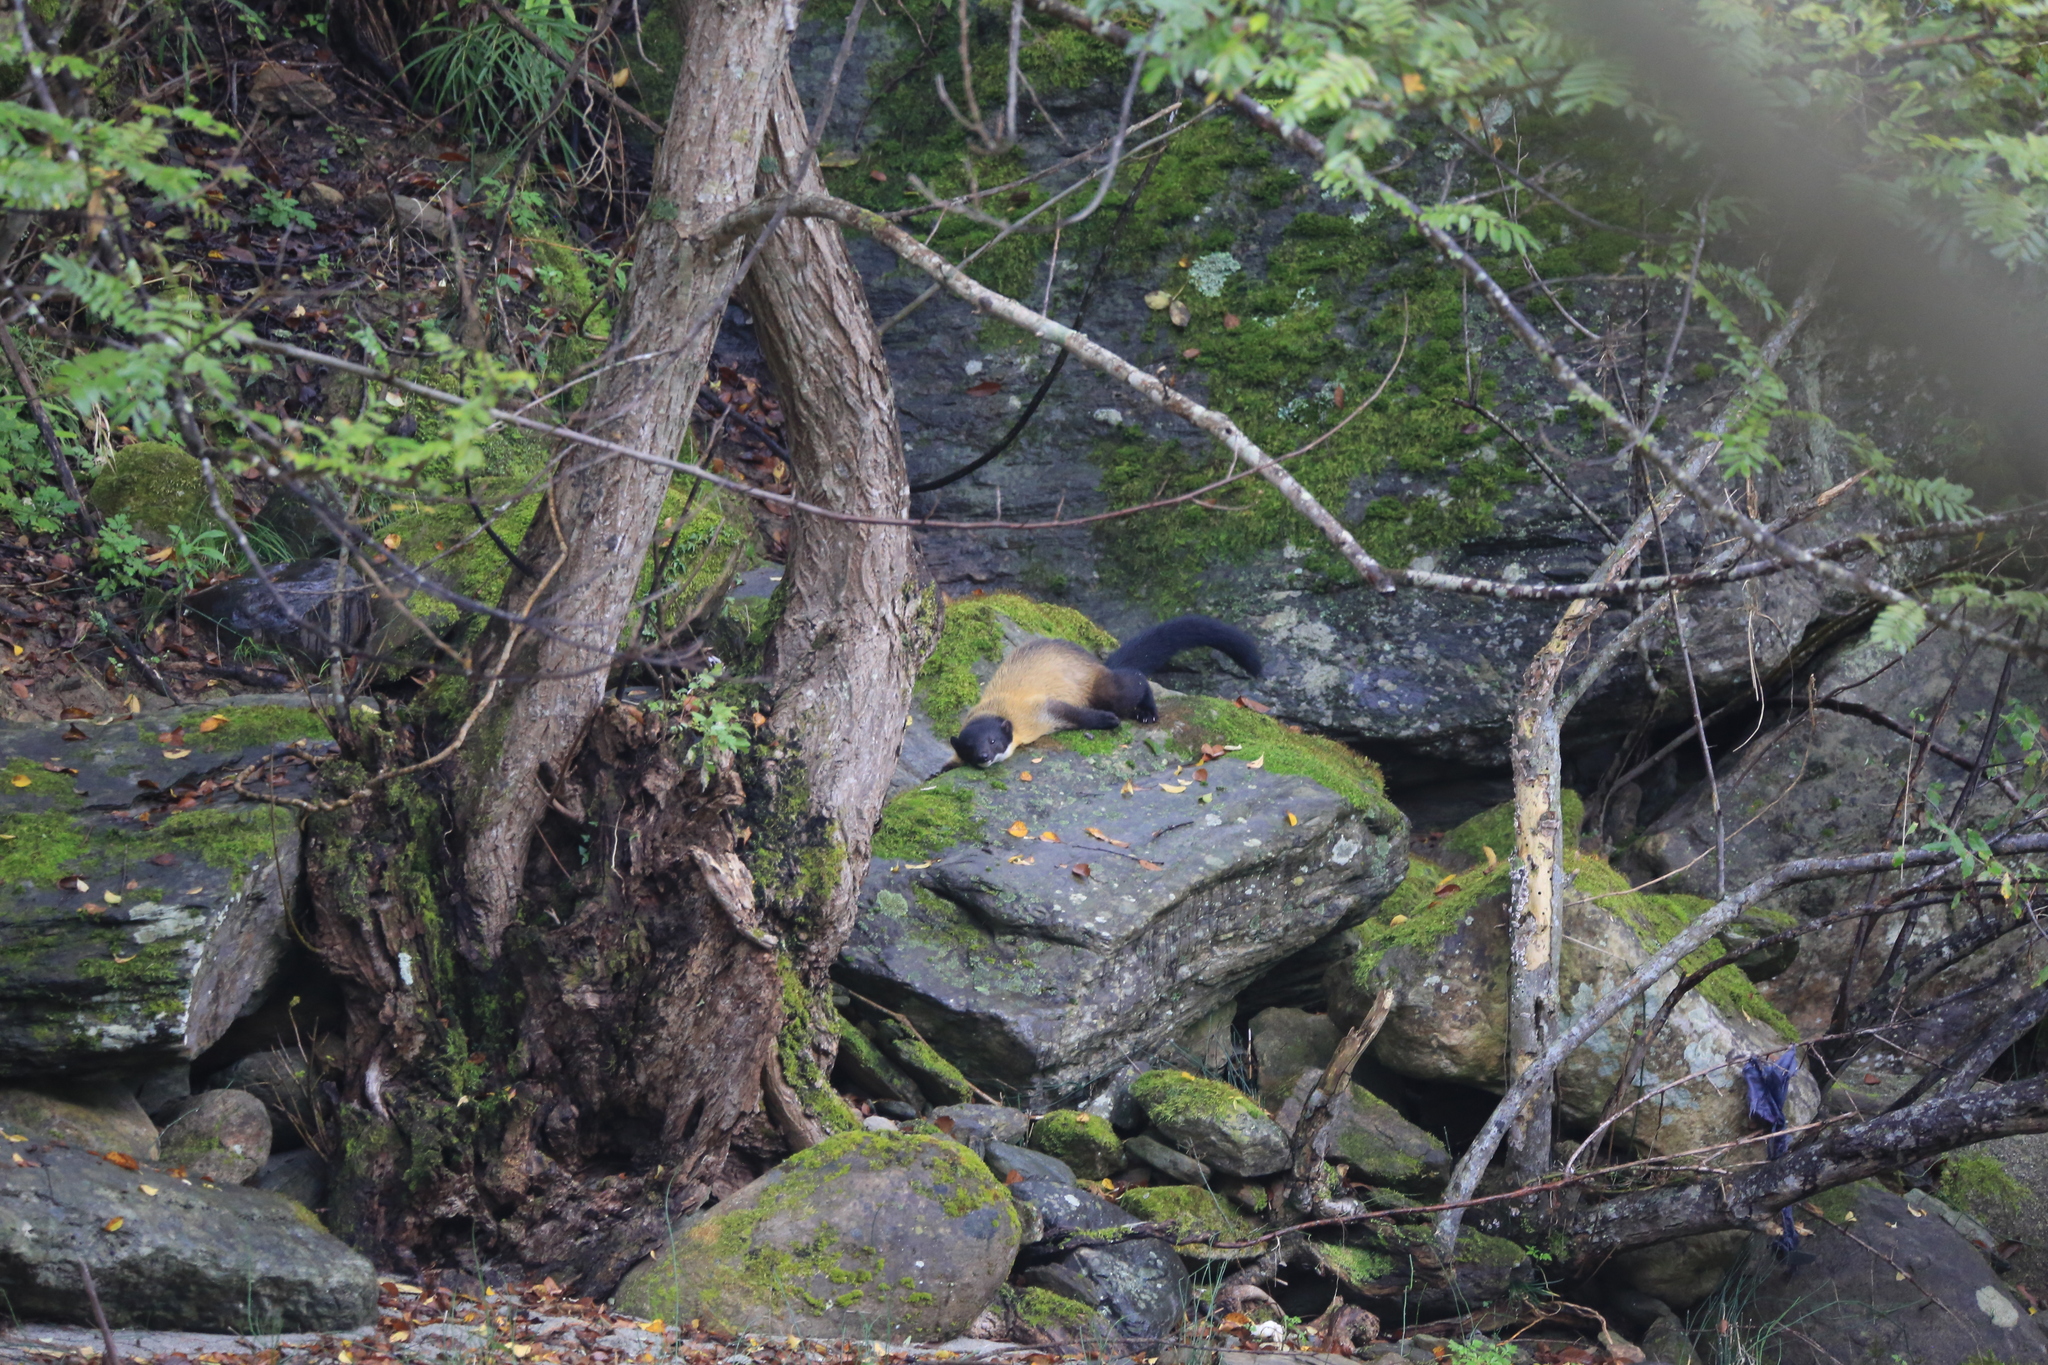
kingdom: Animalia
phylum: Chordata
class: Mammalia
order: Carnivora
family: Mustelidae
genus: Martes
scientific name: Martes flavigula
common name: Yellow-throated marten
